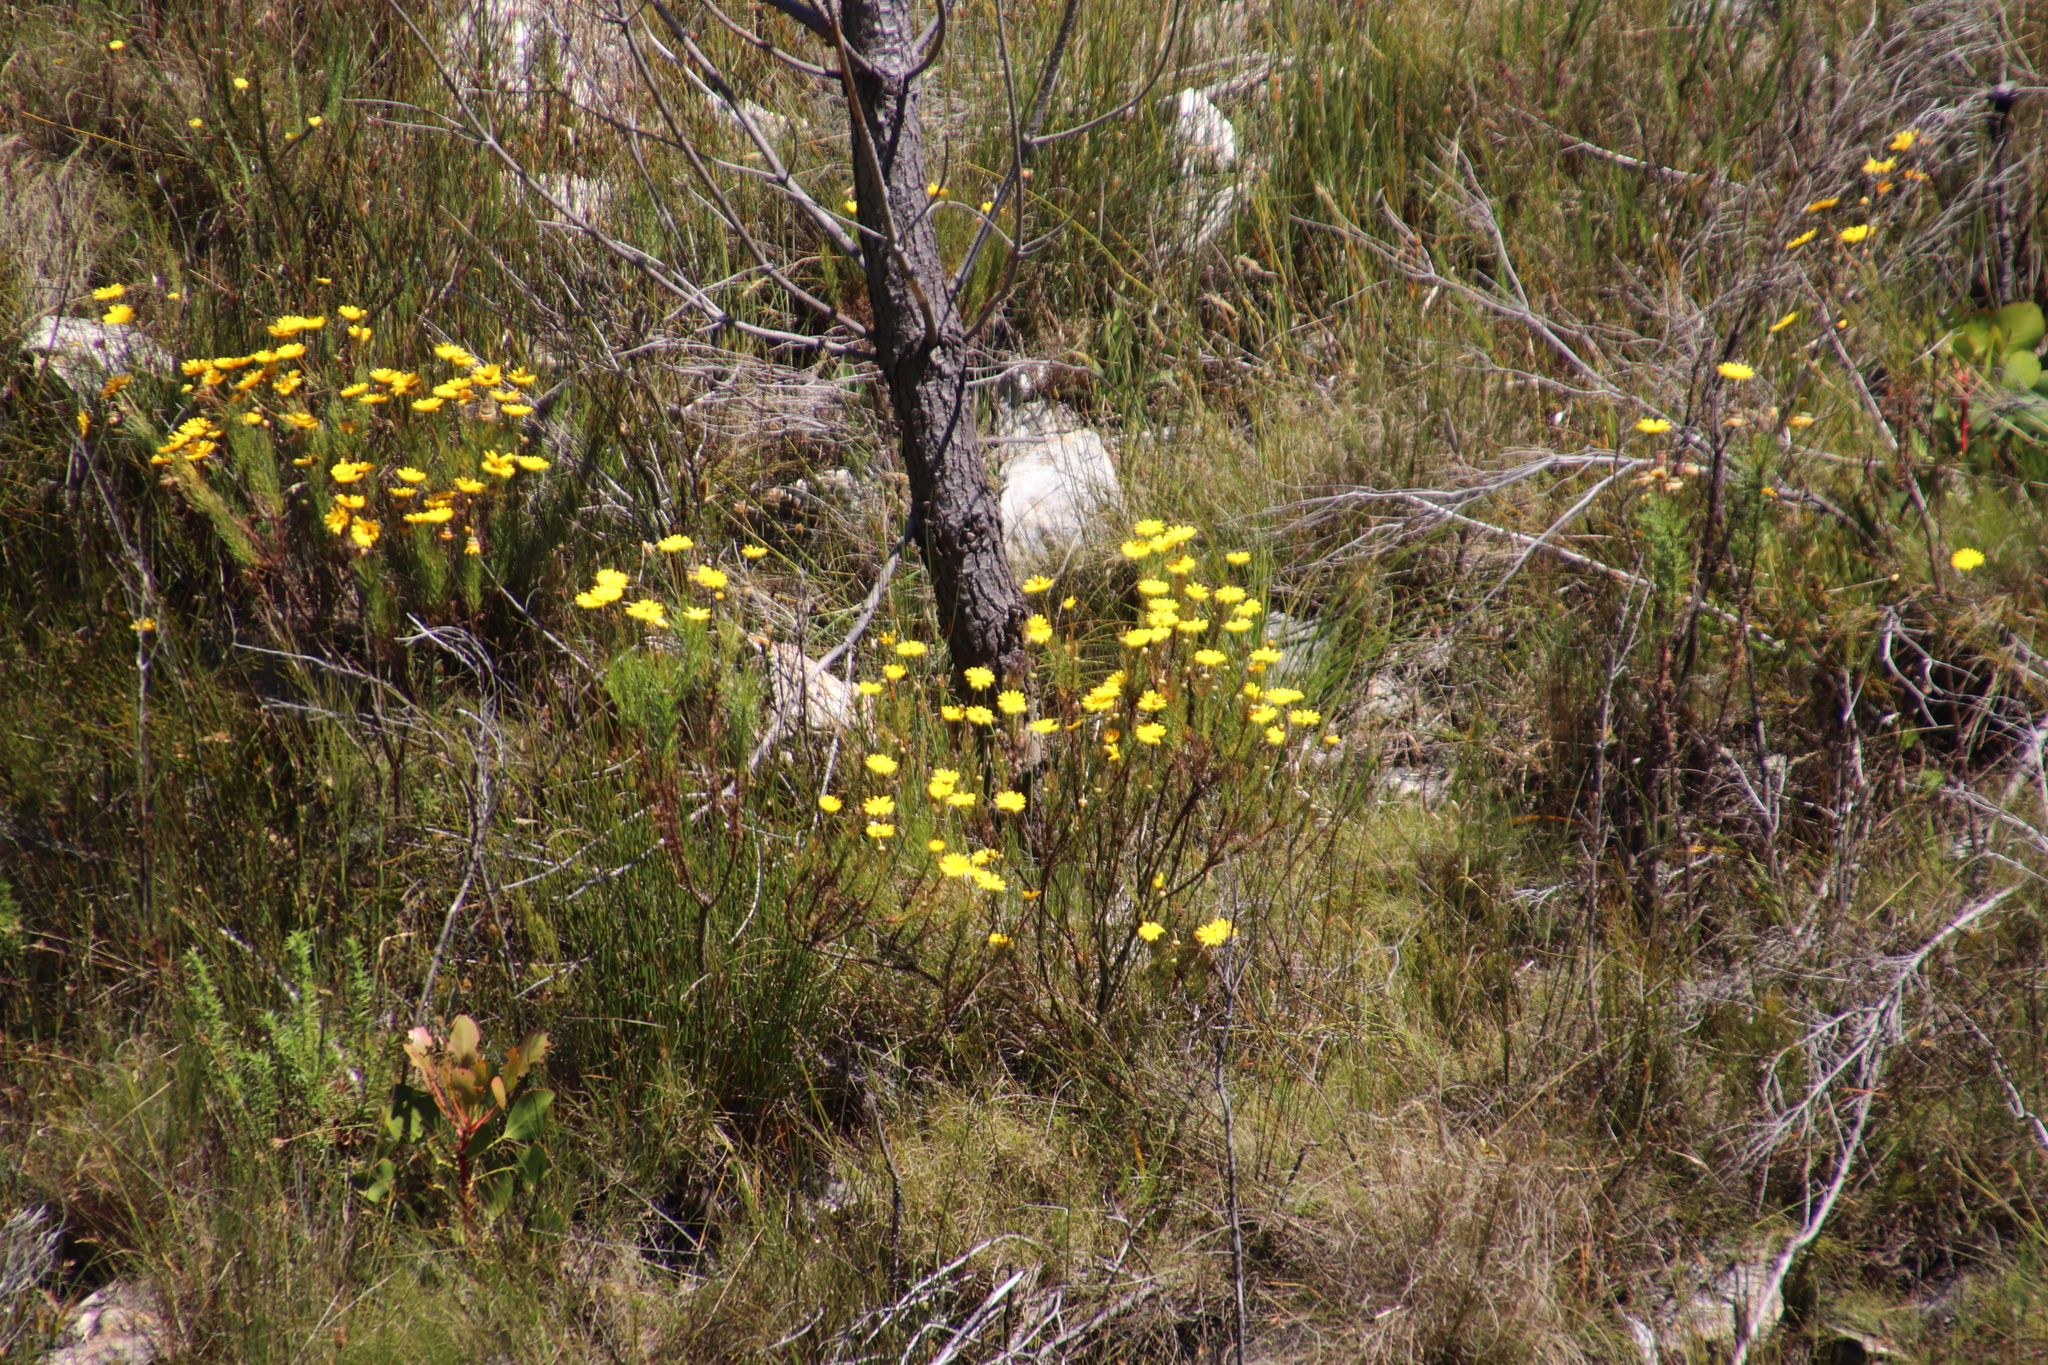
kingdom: Plantae
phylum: Tracheophyta
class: Magnoliopsida
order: Asterales
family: Asteraceae
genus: Euryops
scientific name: Euryops abrotanifolius
